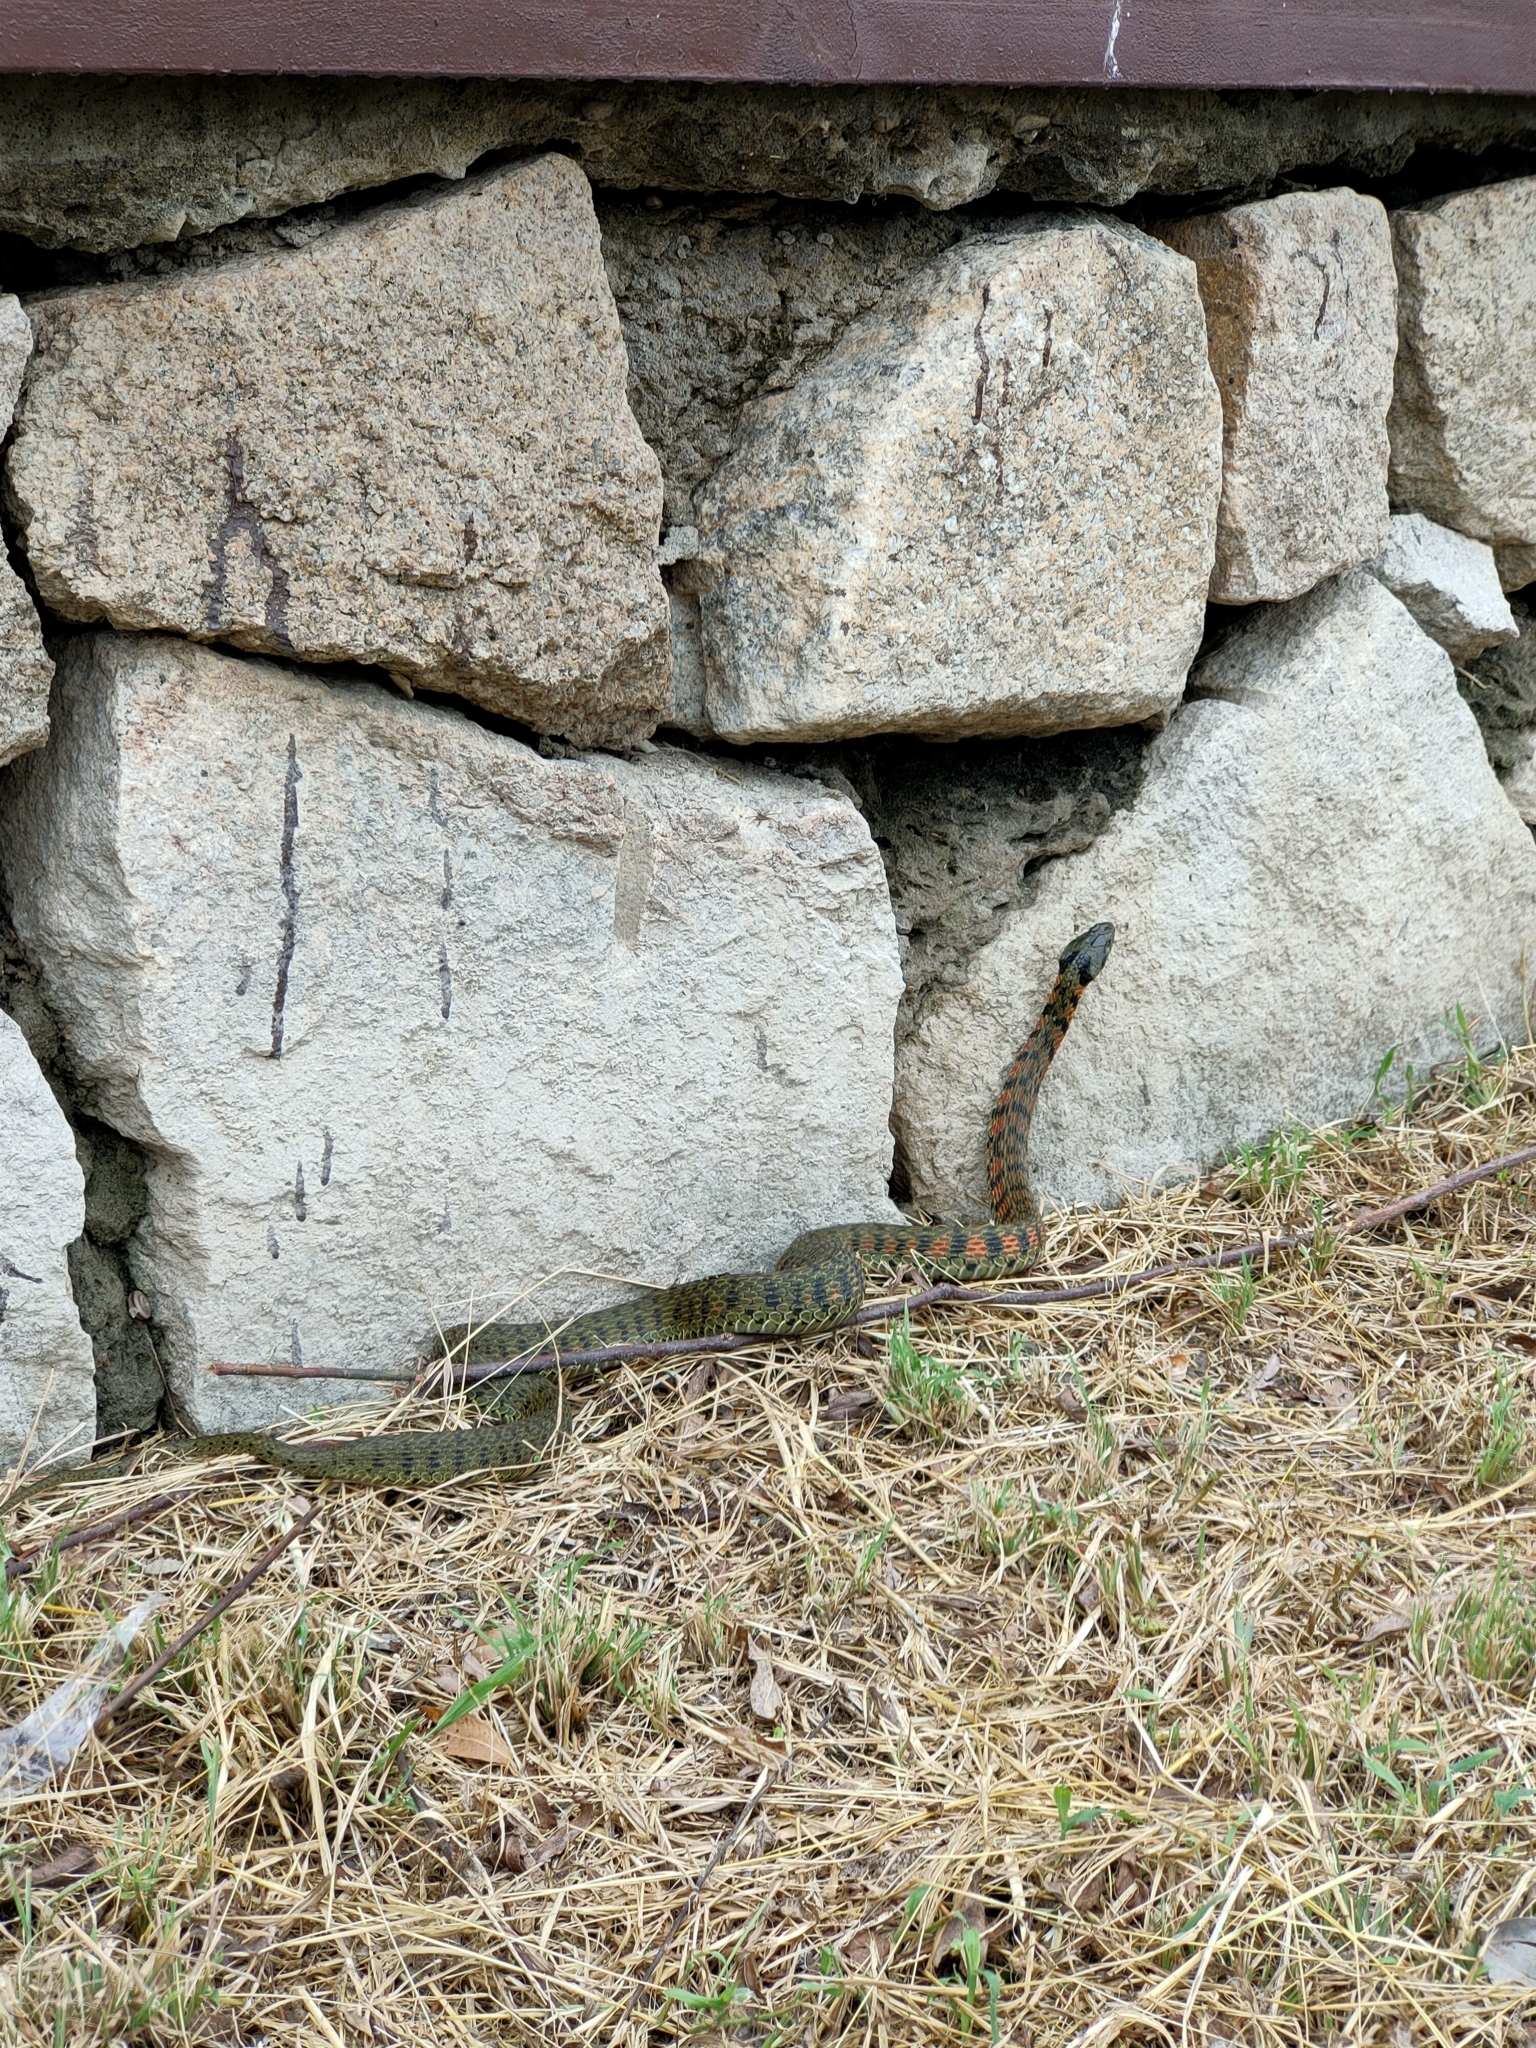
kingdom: Animalia
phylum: Chordata
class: Squamata
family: Colubridae
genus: Rhabdophis
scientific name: Rhabdophis tigrinus
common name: Tiger keelback
